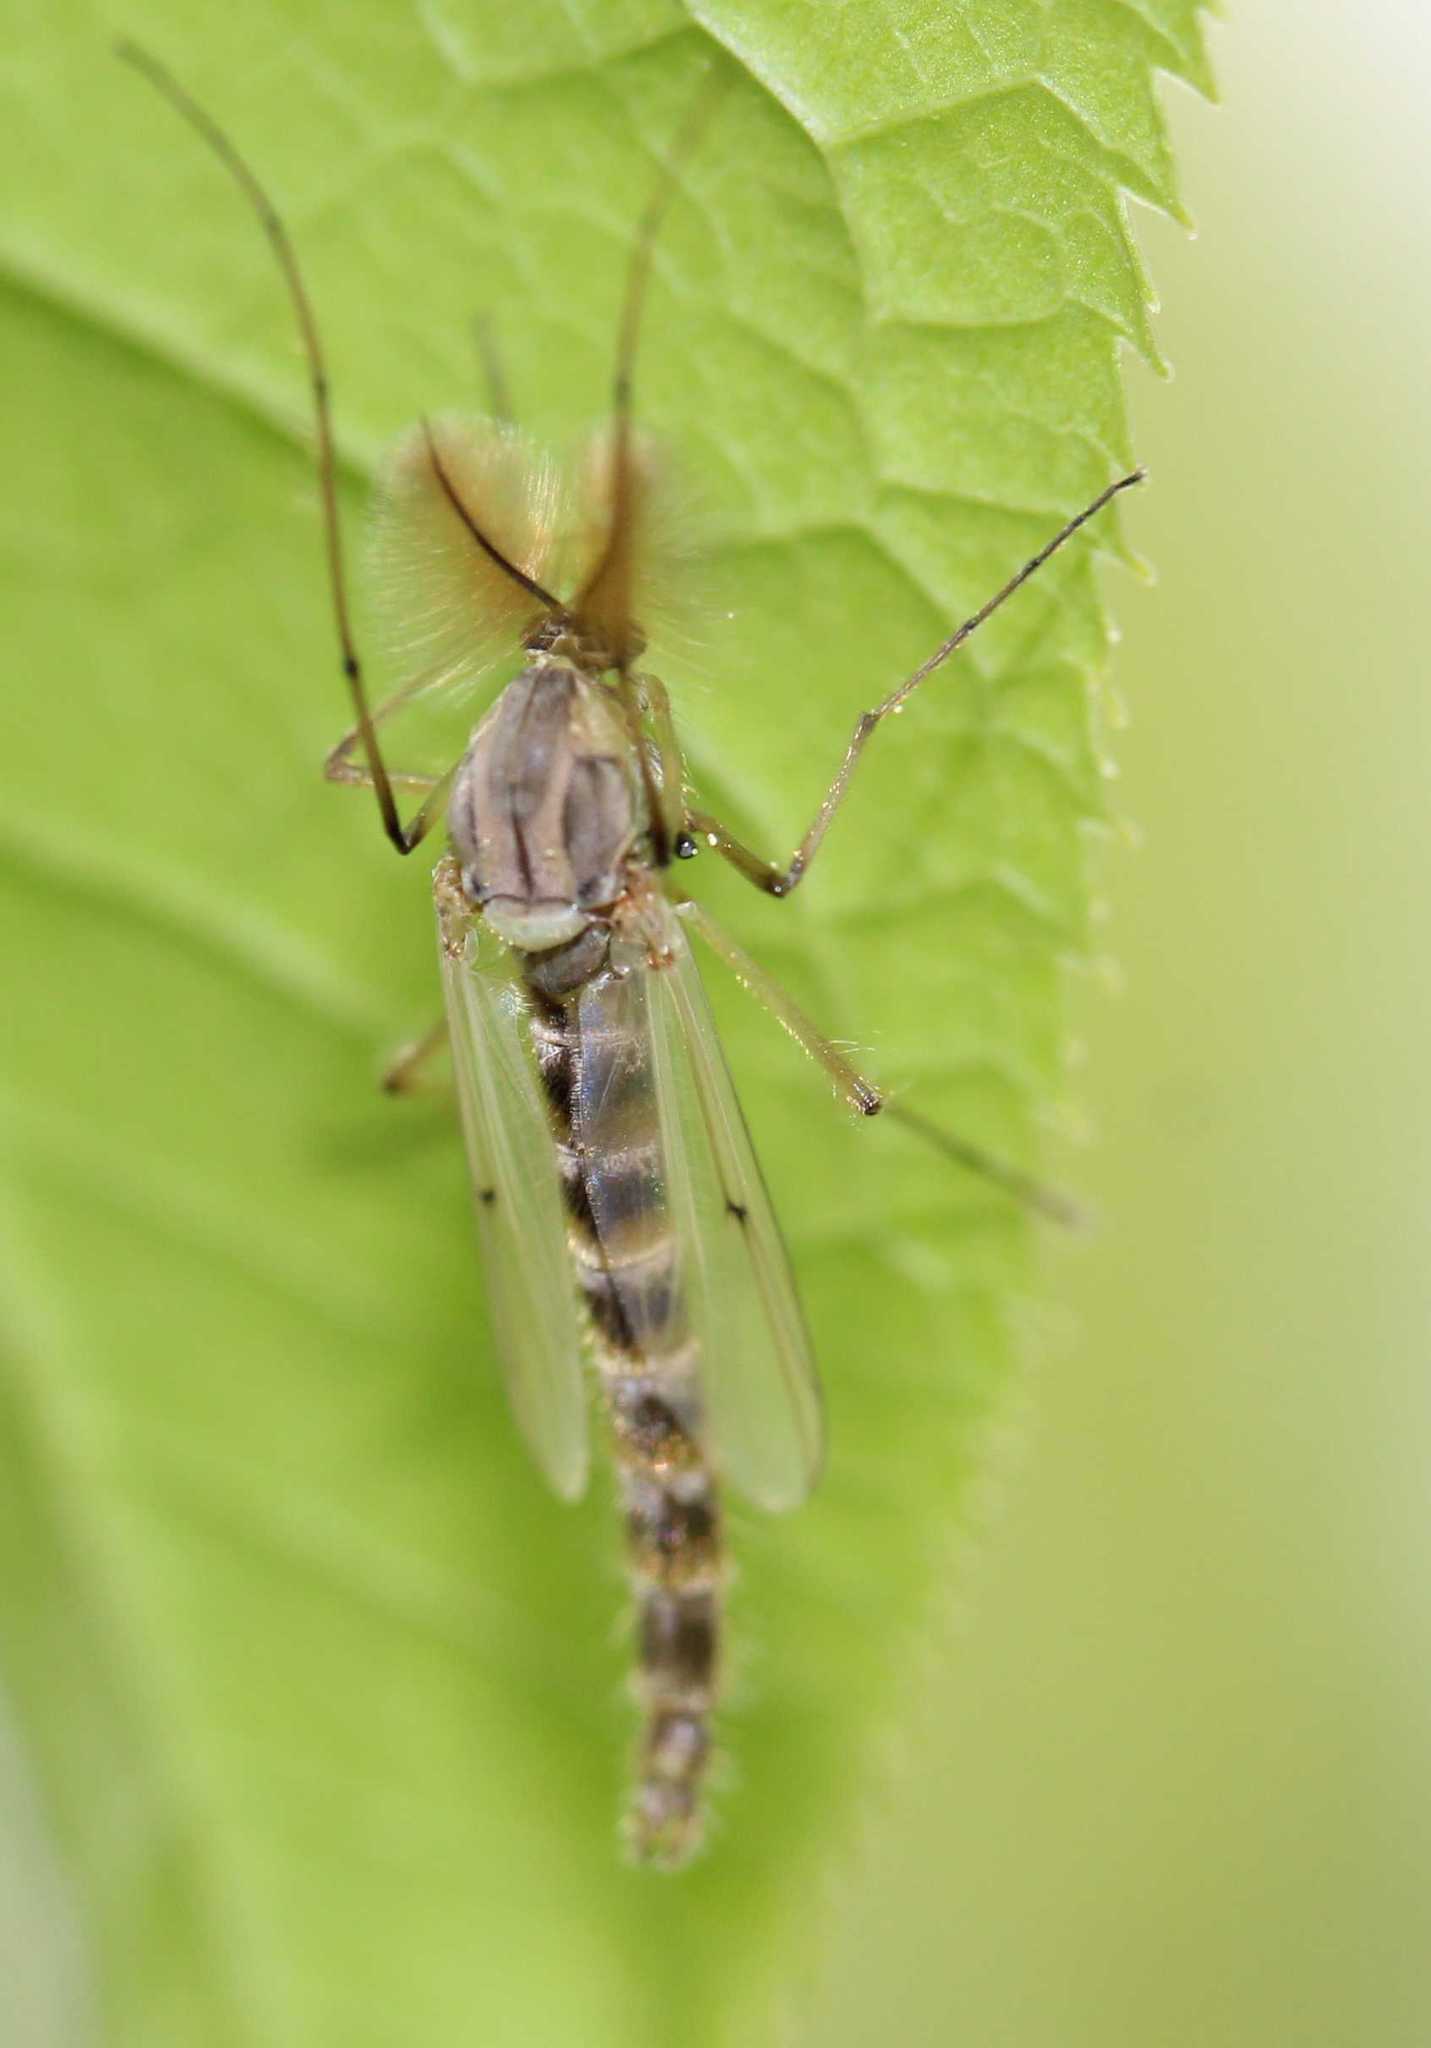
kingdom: Animalia
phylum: Arthropoda
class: Insecta
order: Diptera
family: Chironomidae
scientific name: Chironomidae
